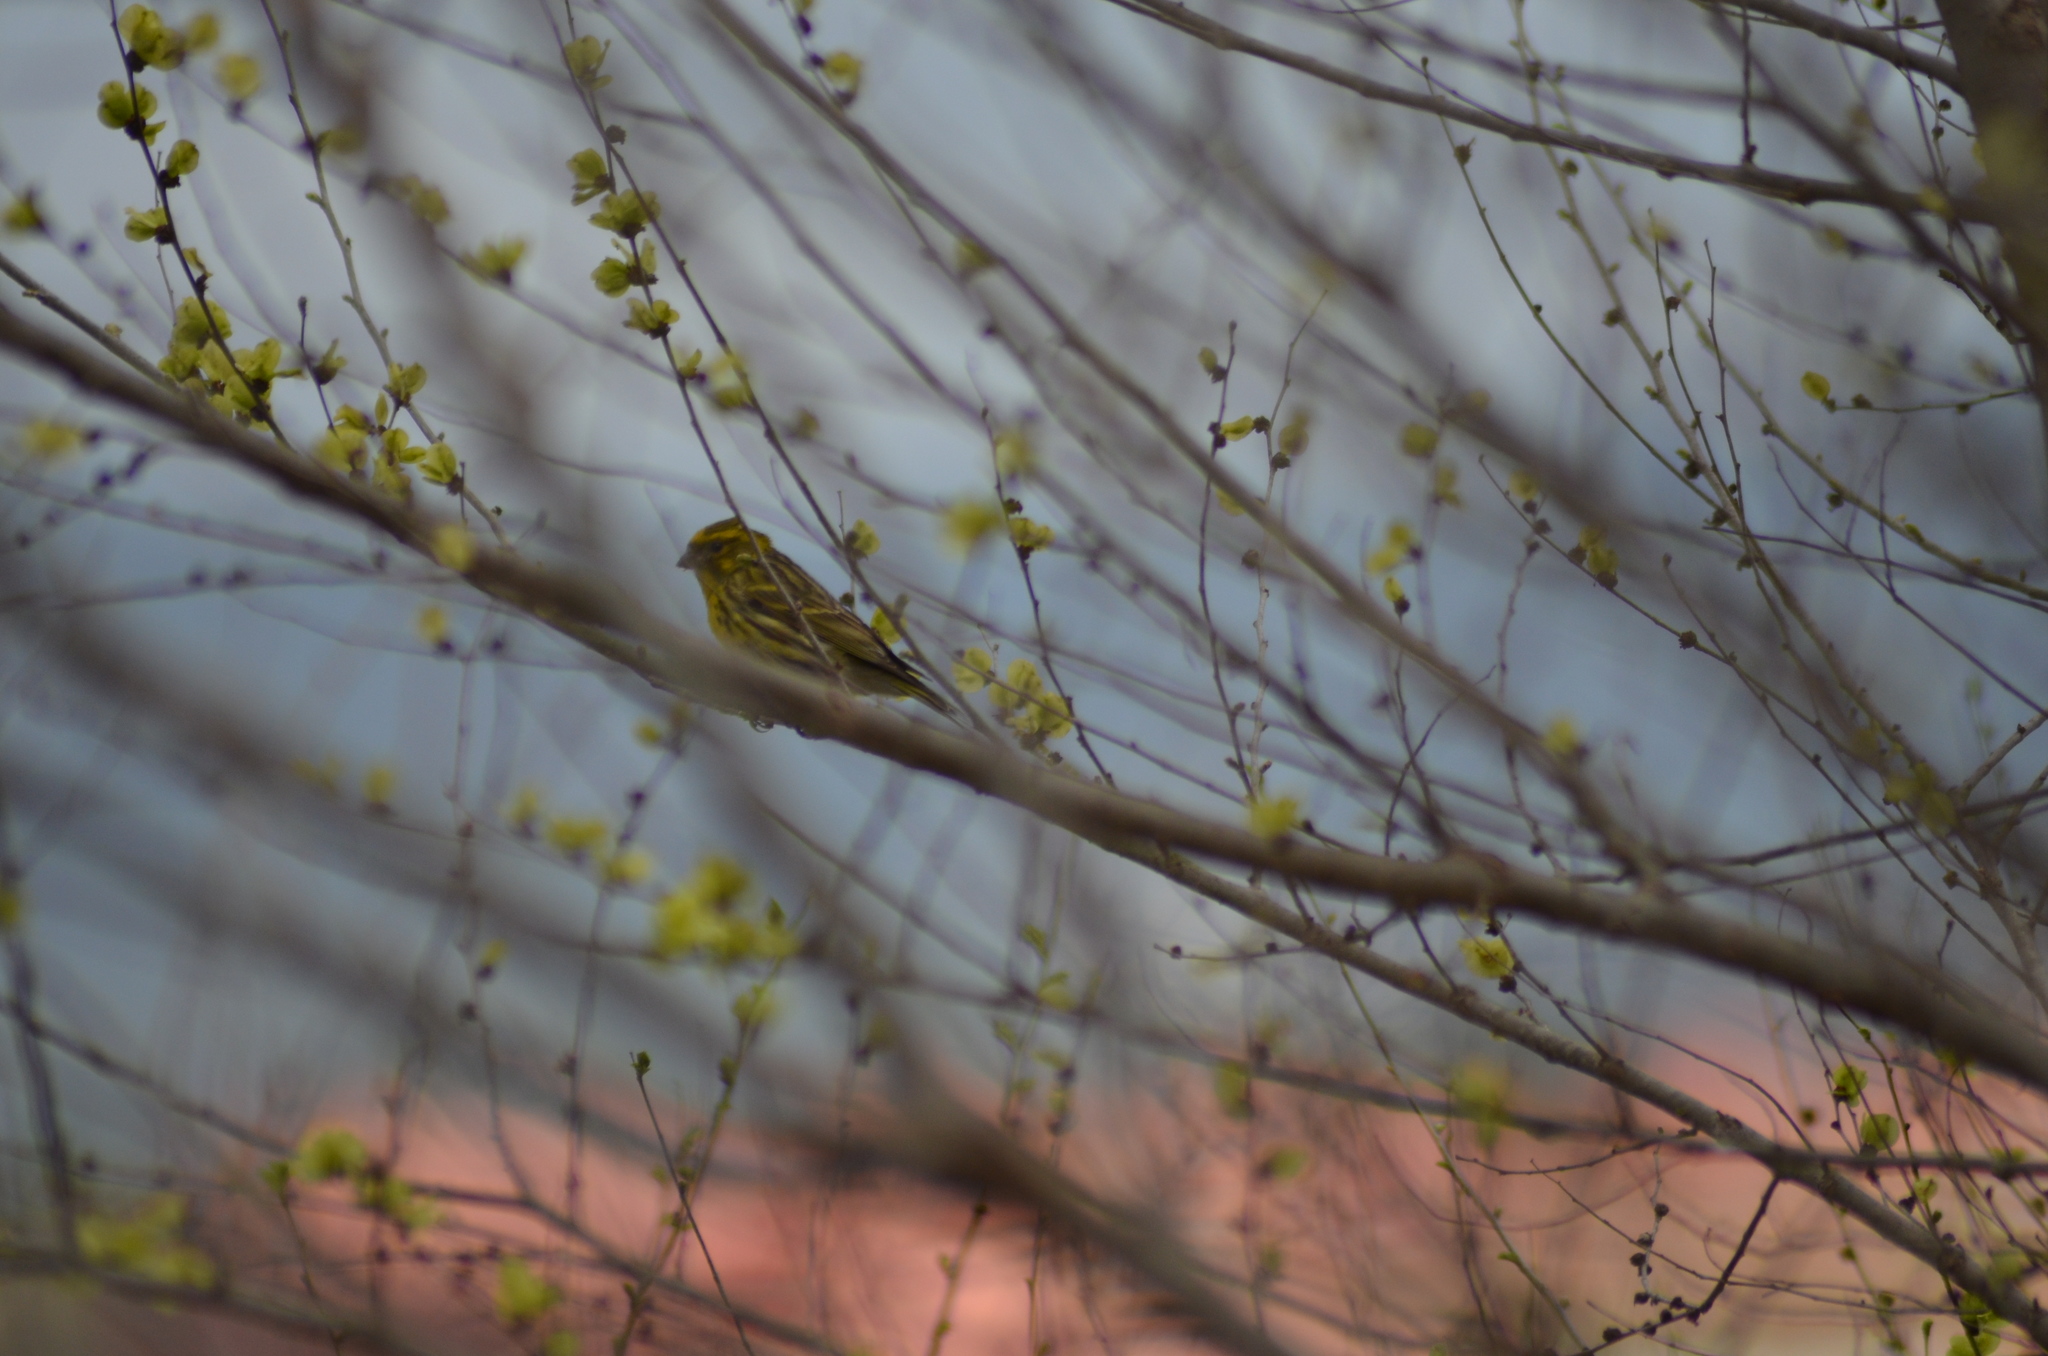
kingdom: Animalia
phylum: Chordata
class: Aves
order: Passeriformes
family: Fringillidae
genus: Serinus
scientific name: Serinus serinus
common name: European serin
